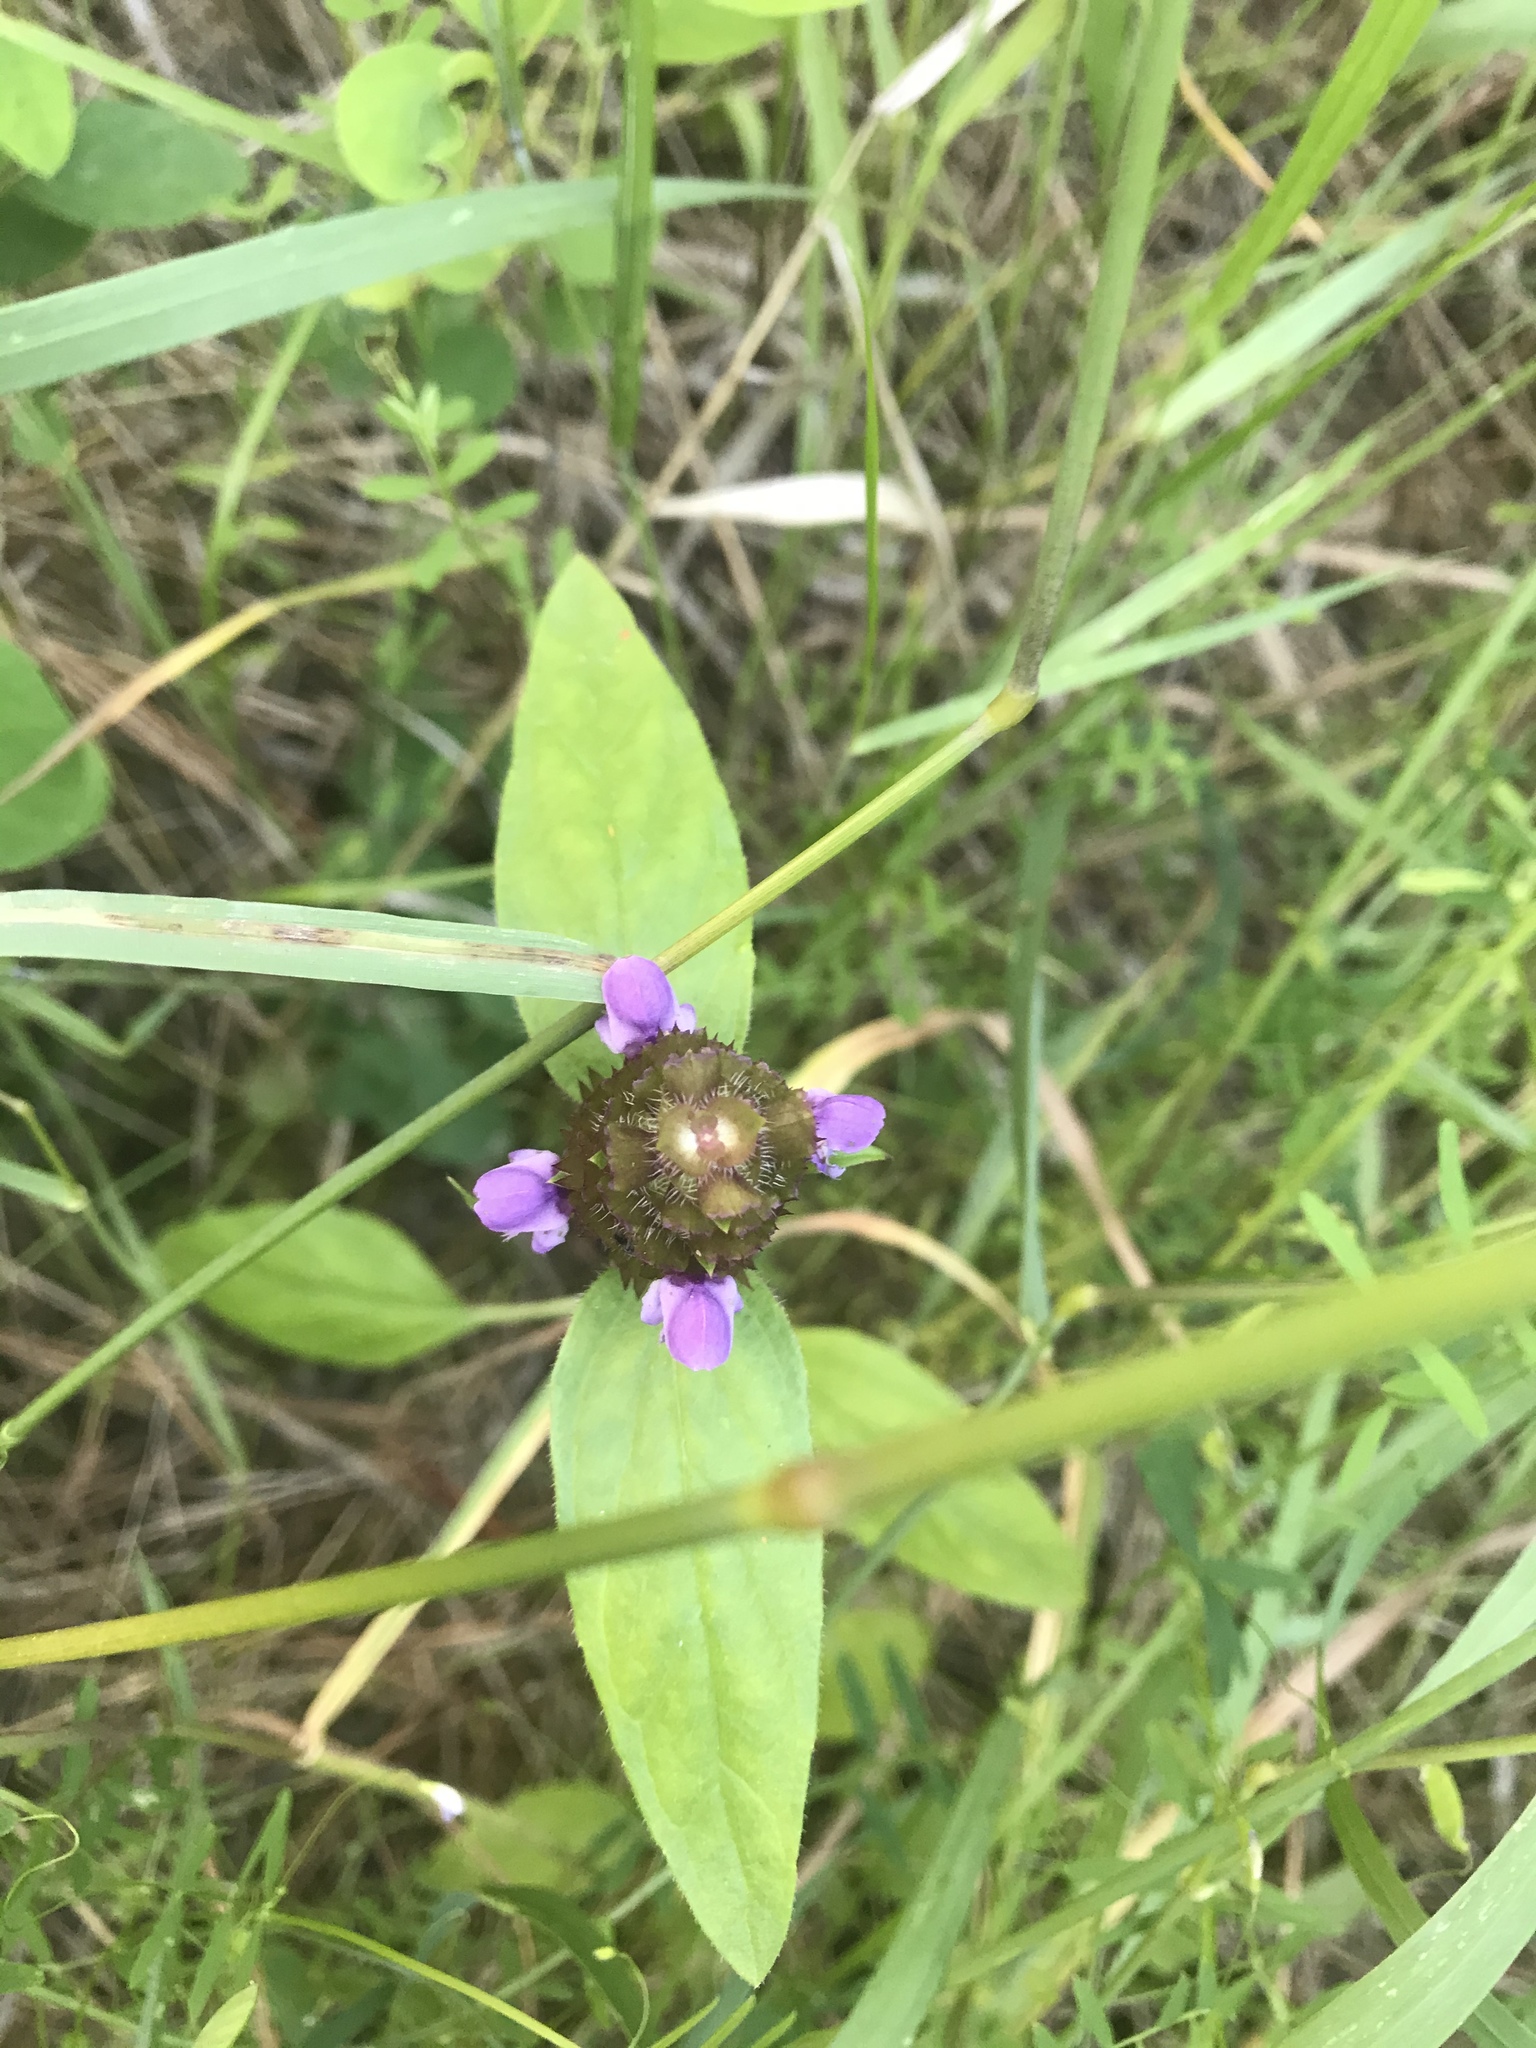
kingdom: Plantae
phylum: Tracheophyta
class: Magnoliopsida
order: Lamiales
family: Lamiaceae
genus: Prunella
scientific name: Prunella vulgaris
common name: Heal-all
